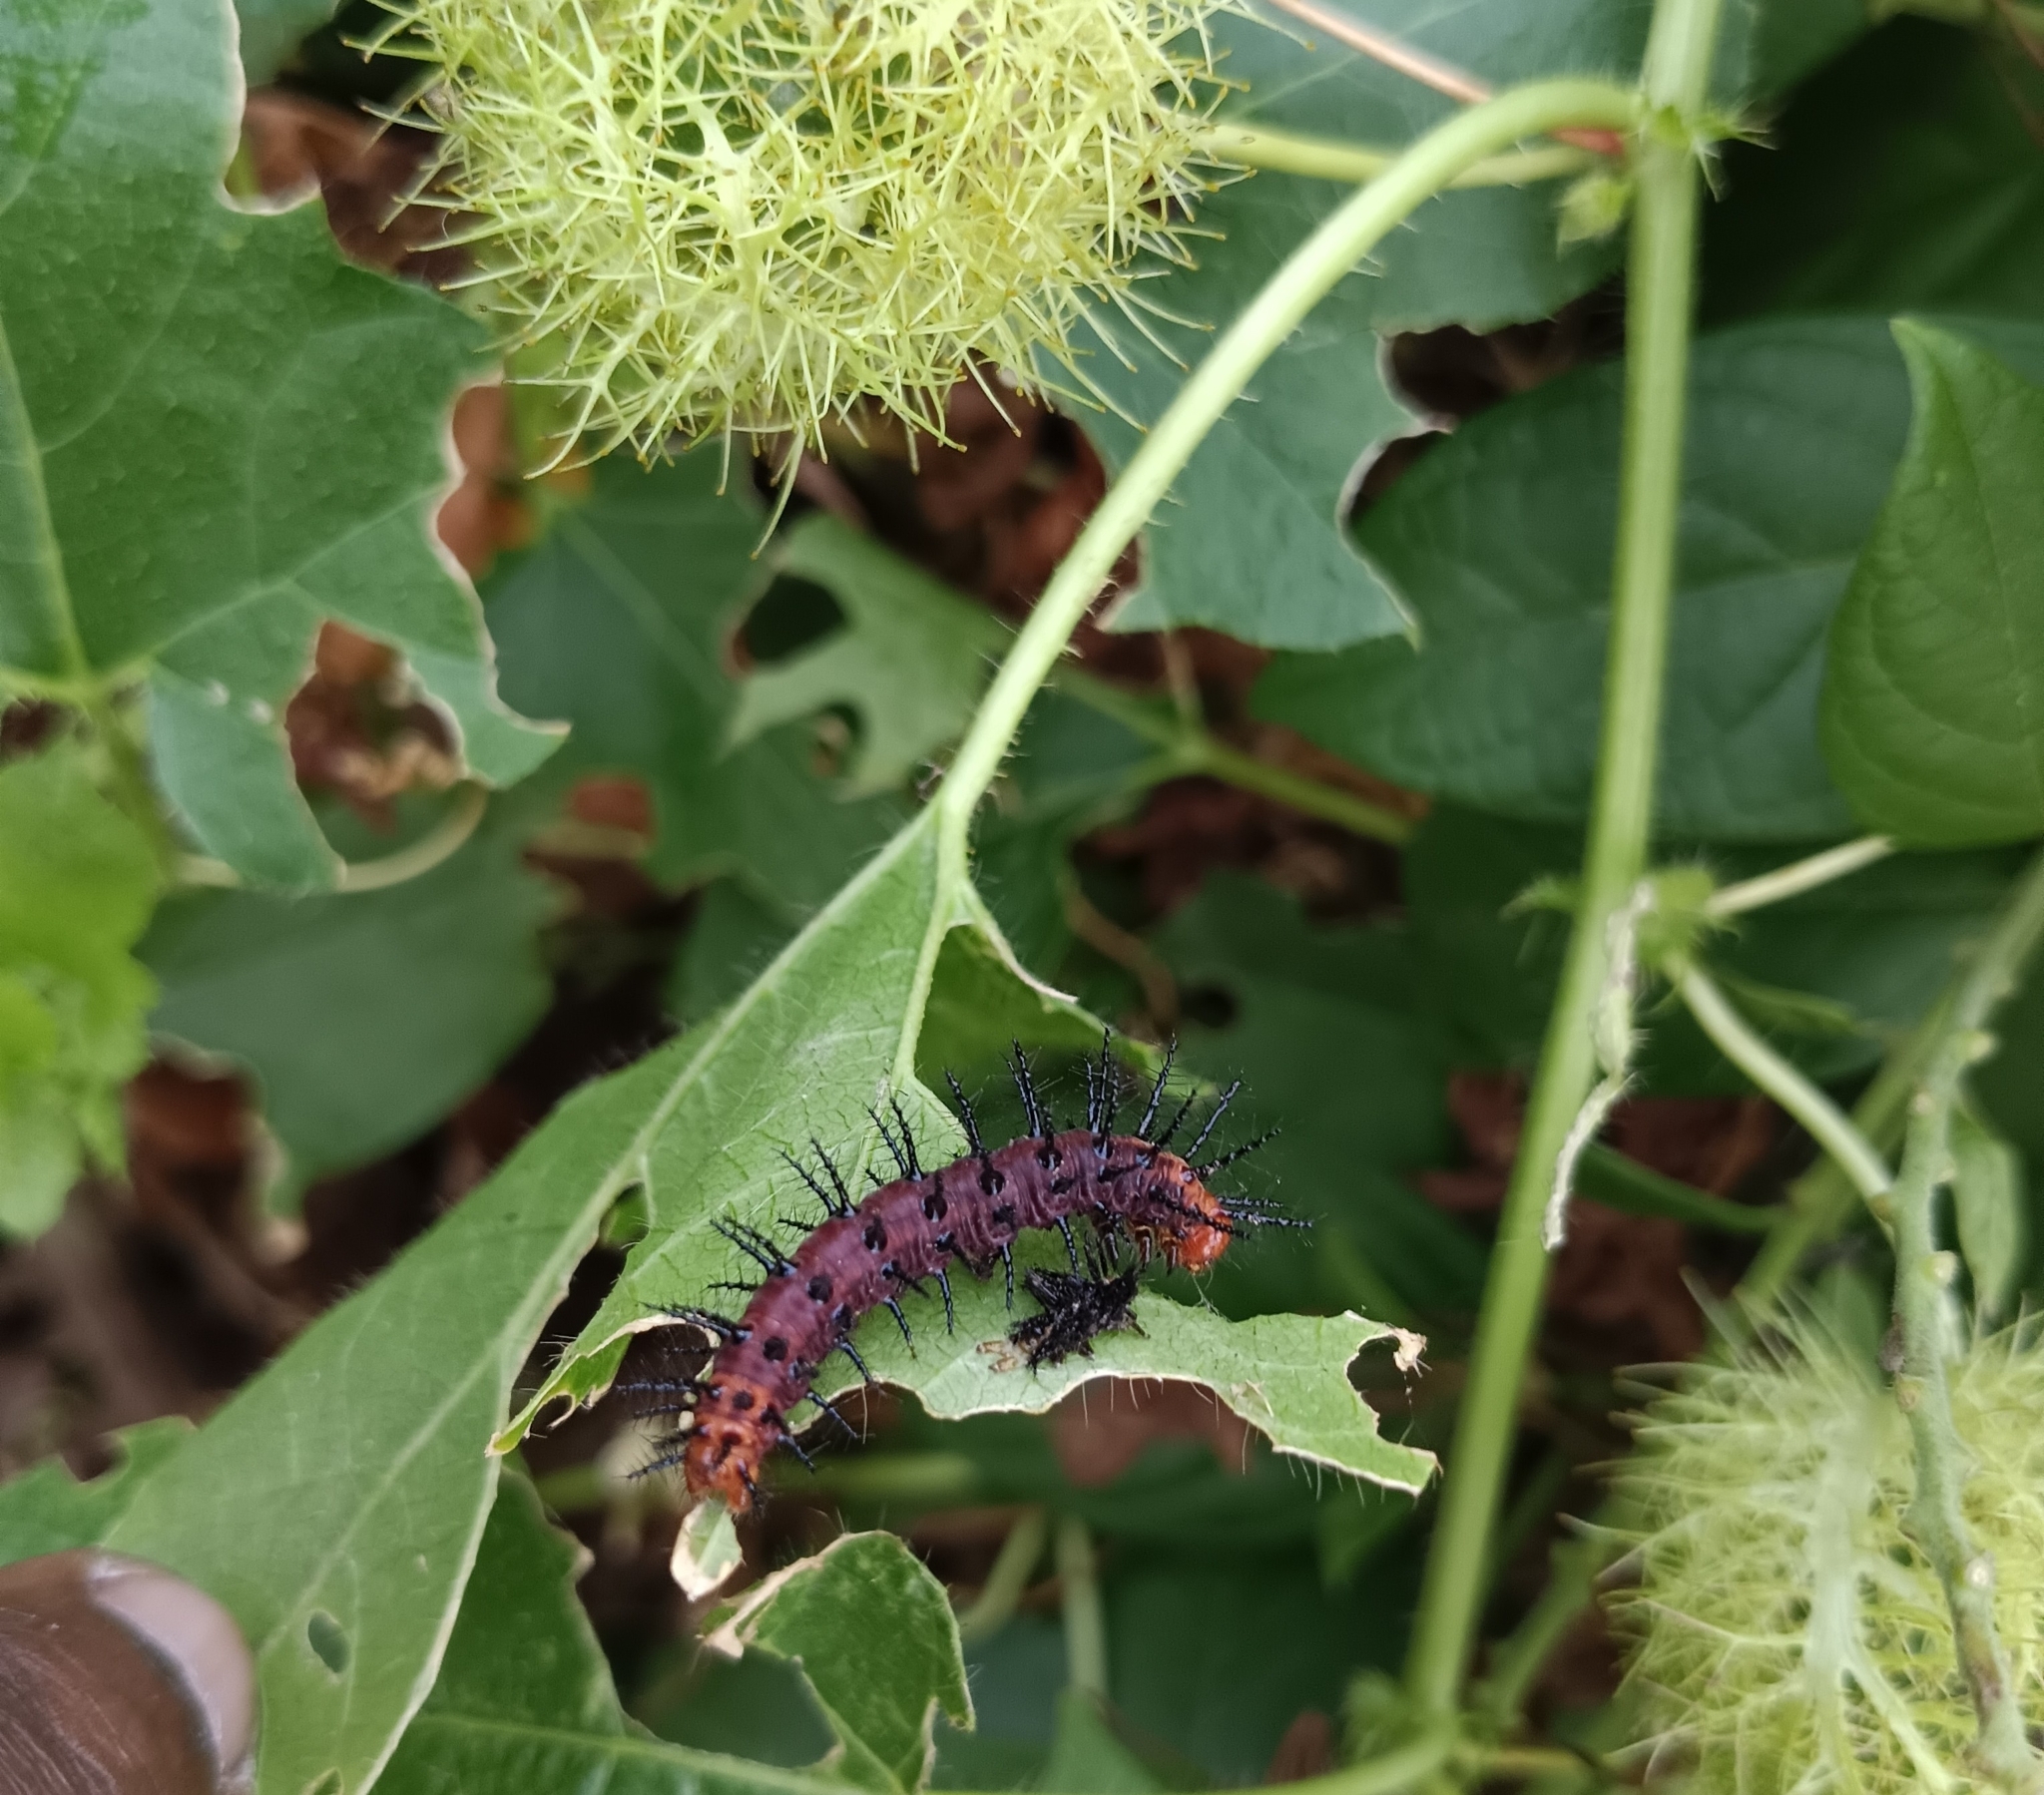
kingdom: Animalia
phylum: Arthropoda
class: Insecta
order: Lepidoptera
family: Nymphalidae
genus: Acraea
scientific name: Acraea terpsicore
